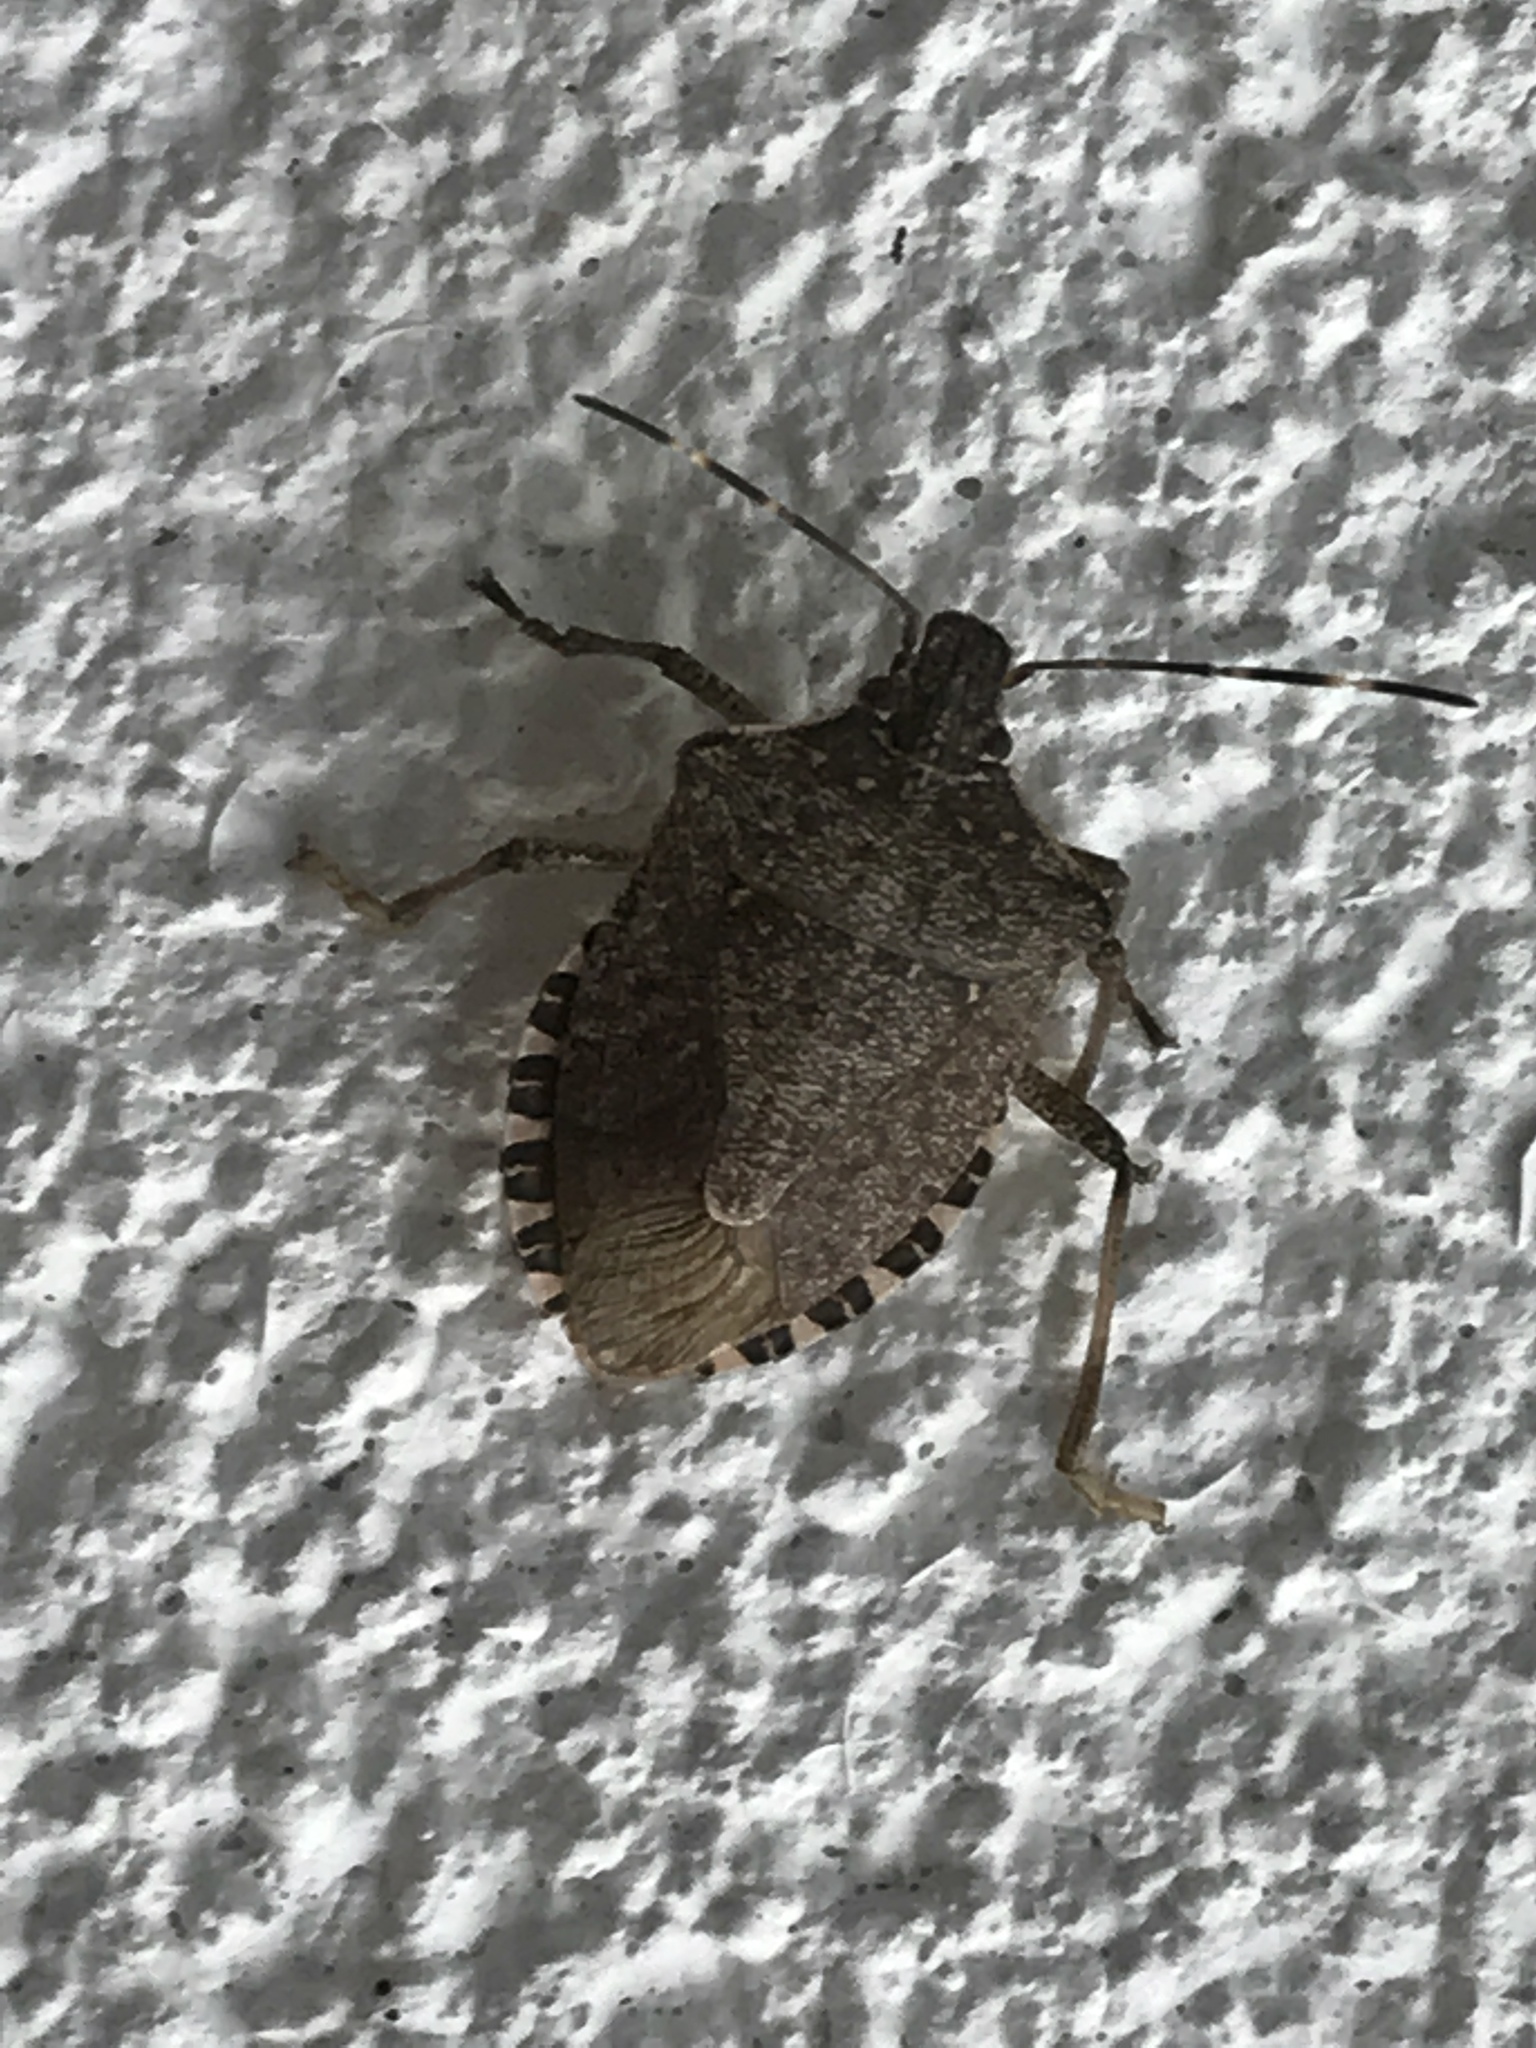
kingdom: Animalia
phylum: Arthropoda
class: Insecta
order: Hemiptera
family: Pentatomidae
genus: Halyomorpha
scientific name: Halyomorpha halys
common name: Brown marmorated stink bug
